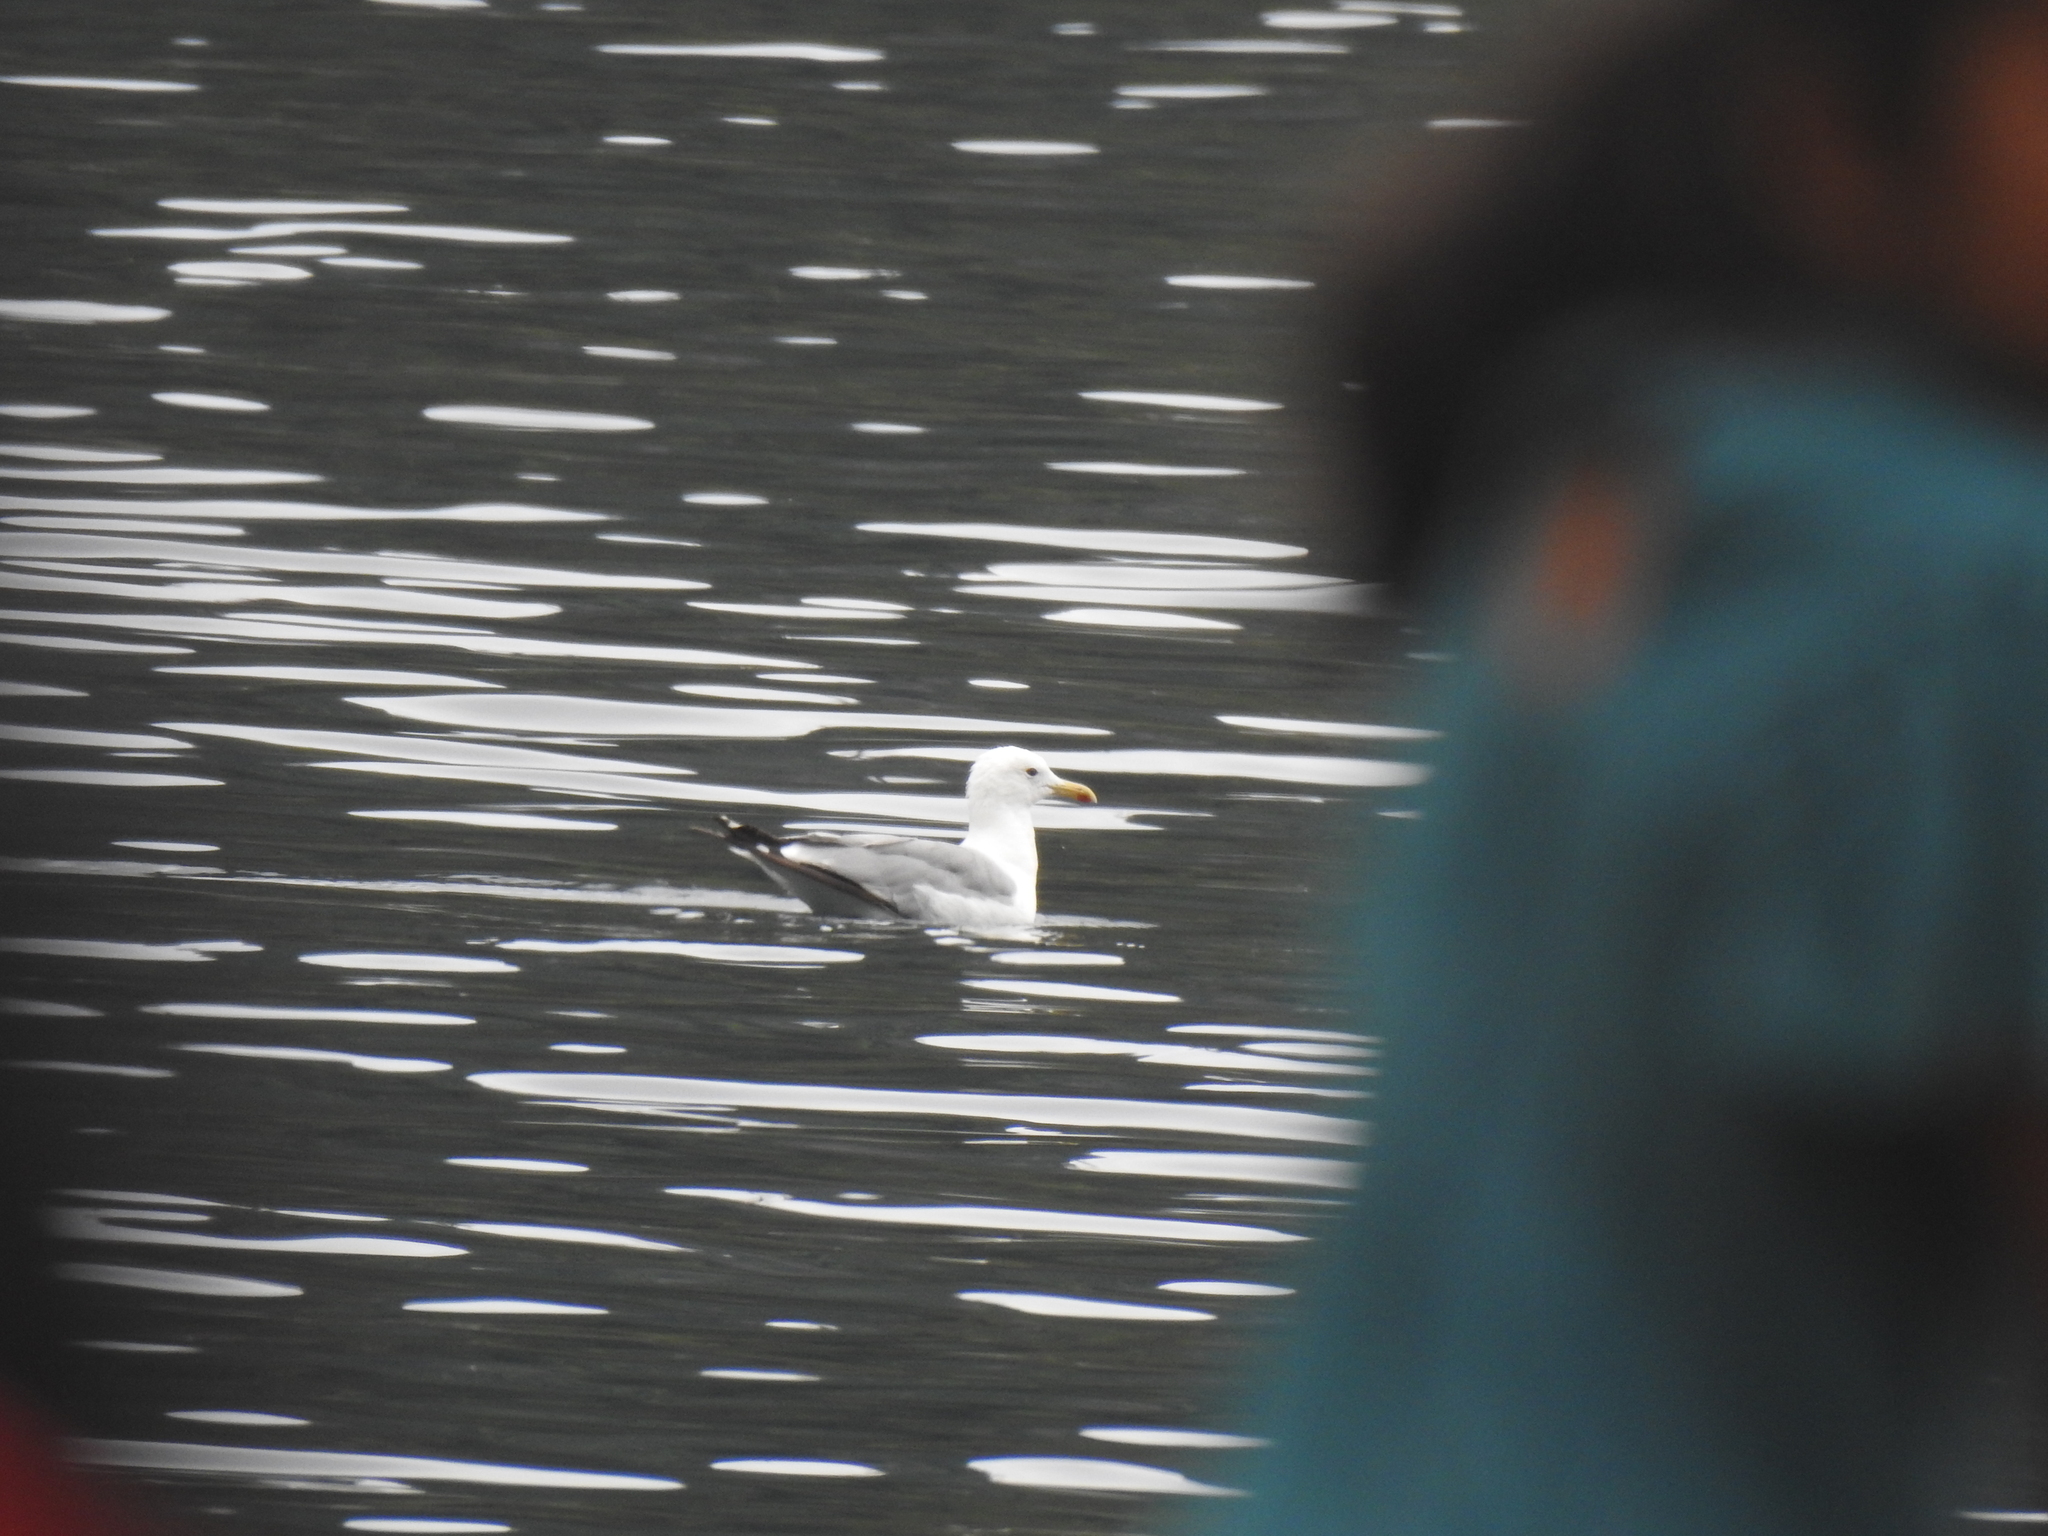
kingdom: Animalia
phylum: Chordata
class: Aves
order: Charadriiformes
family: Laridae
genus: Larus
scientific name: Larus californicus
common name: California gull
